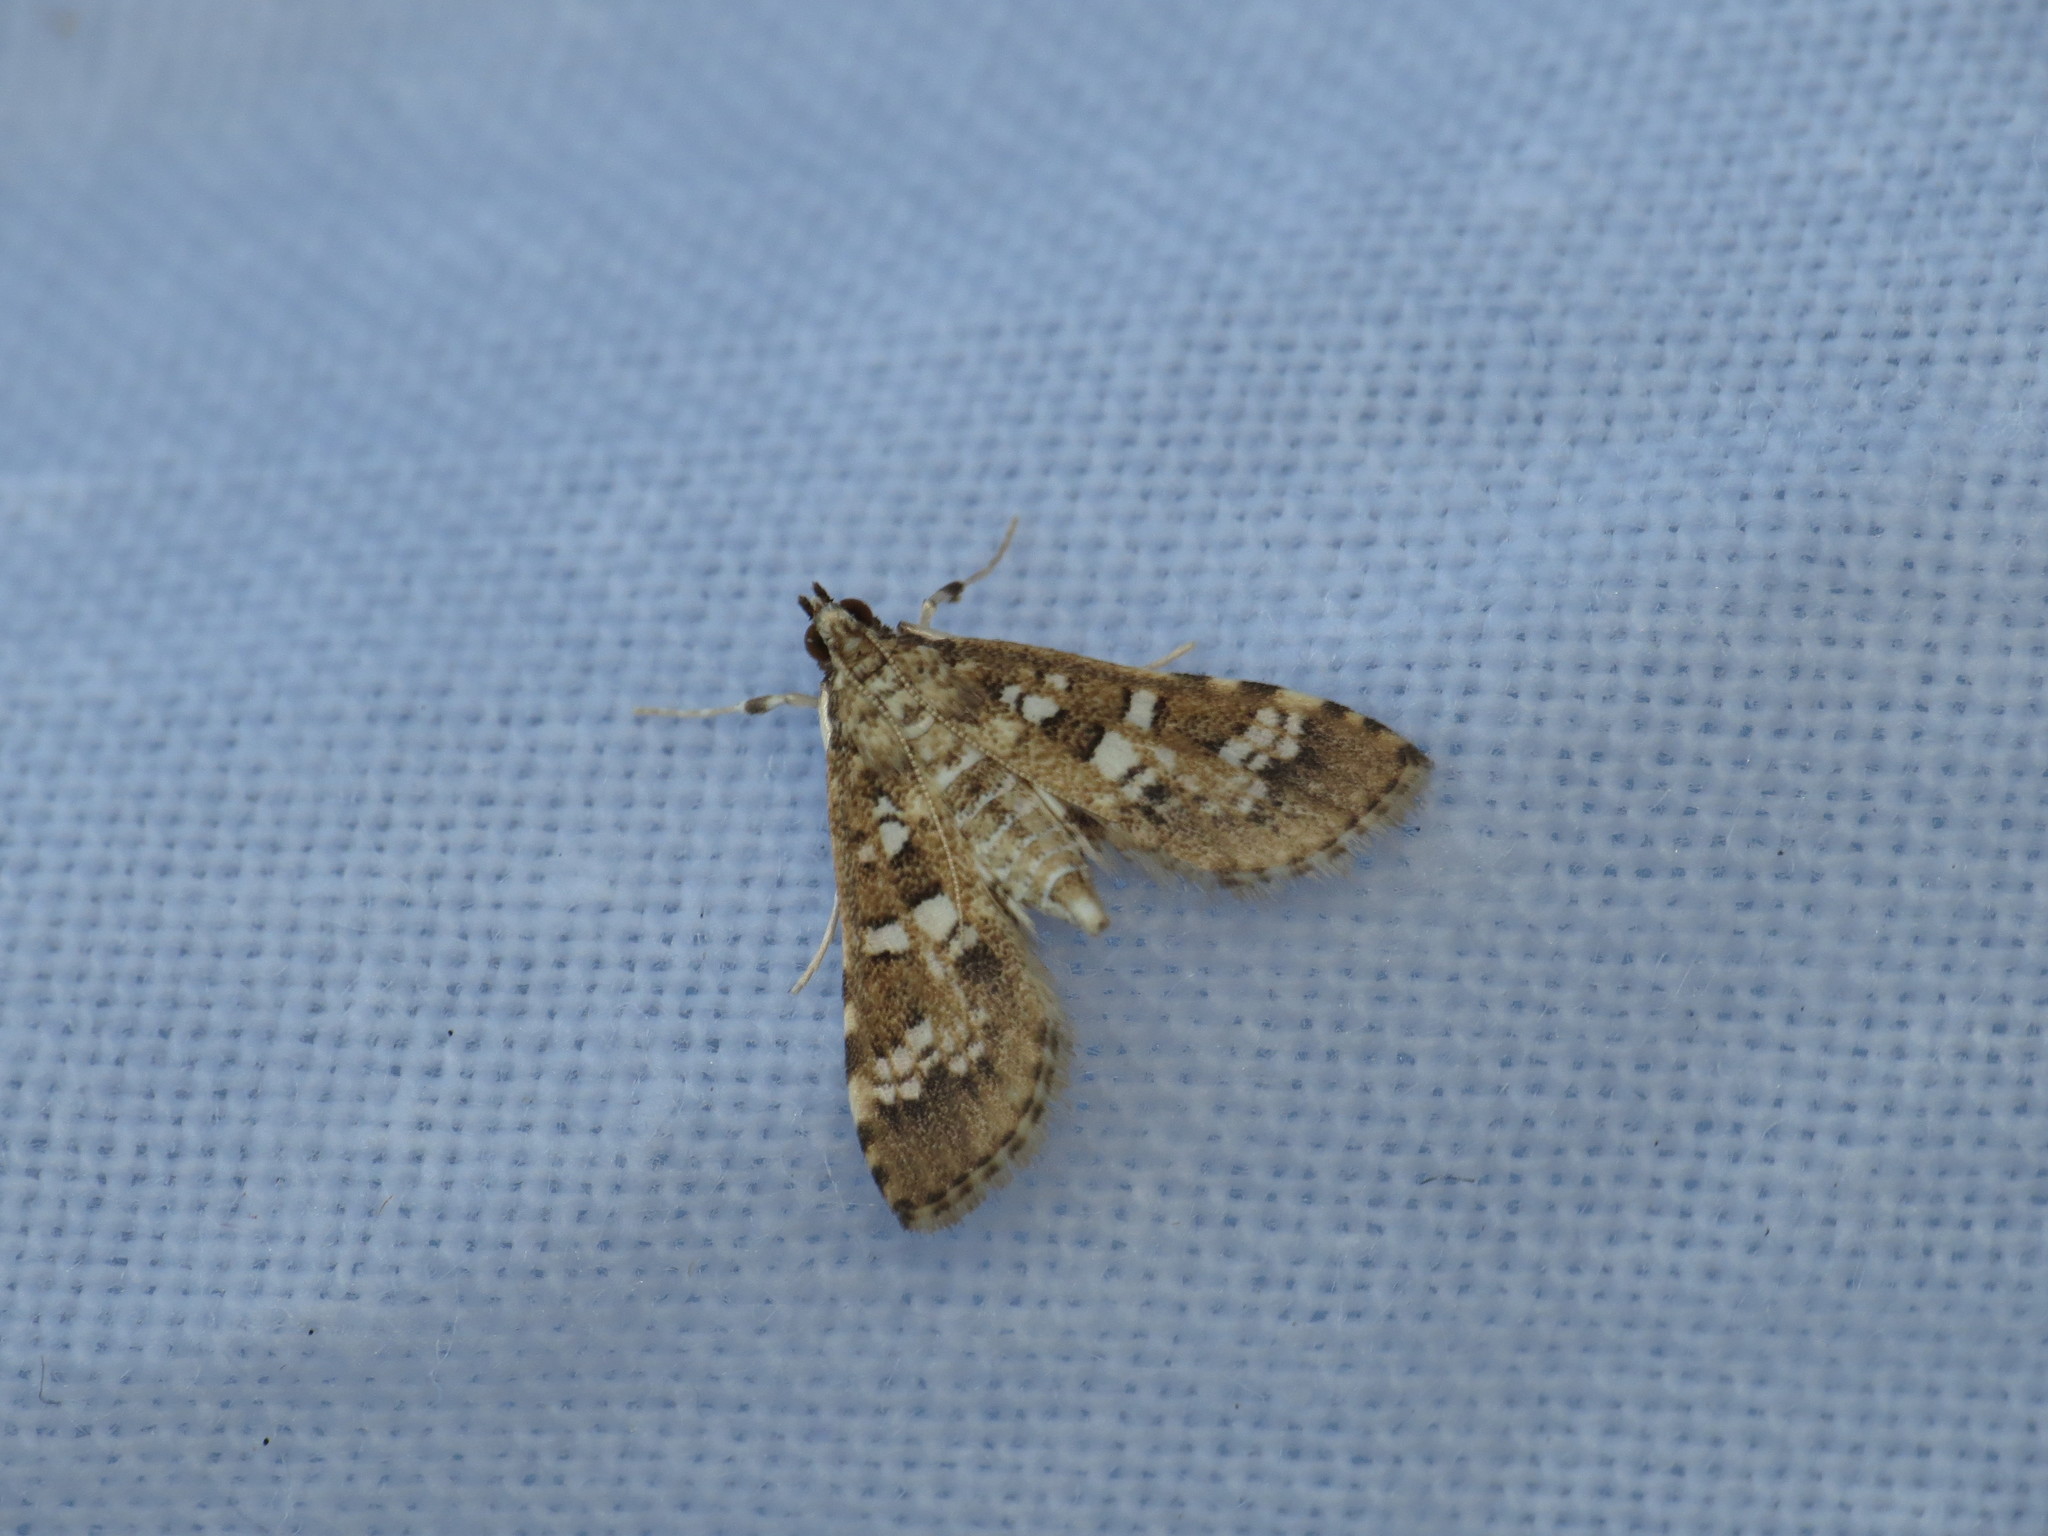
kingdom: Animalia
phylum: Arthropoda
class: Insecta
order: Lepidoptera
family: Crambidae
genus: Samea
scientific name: Samea multiplicalis
